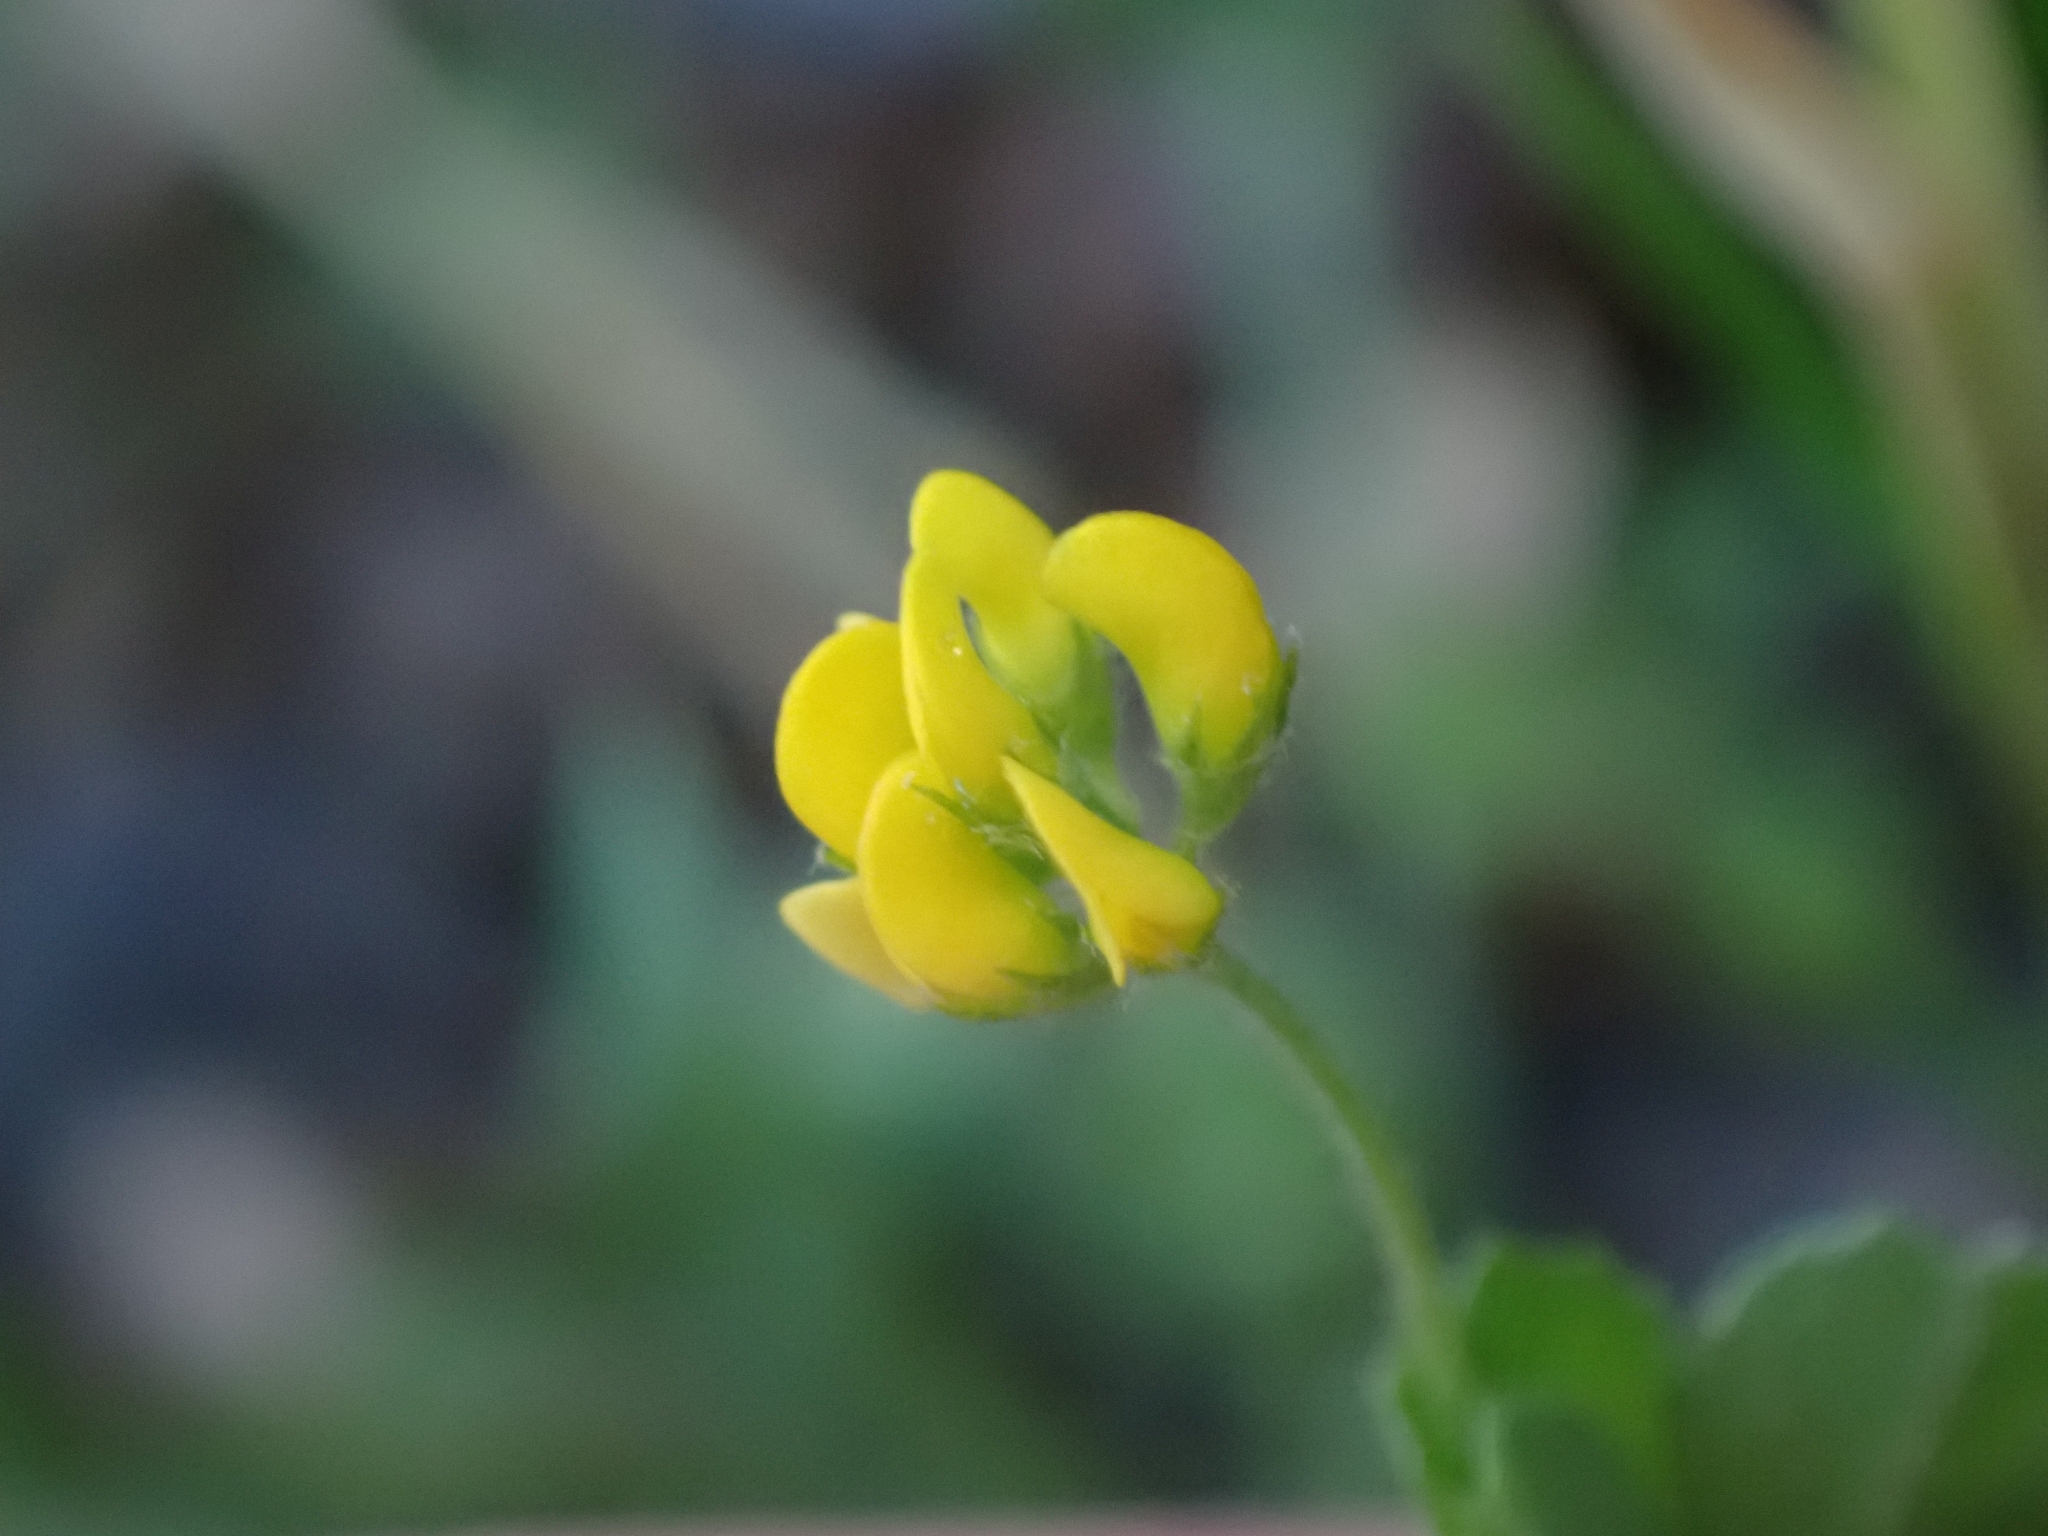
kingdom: Plantae
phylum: Tracheophyta
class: Magnoliopsida
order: Fabales
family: Fabaceae
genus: Medicago
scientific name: Medicago lupulina
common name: Black medick
